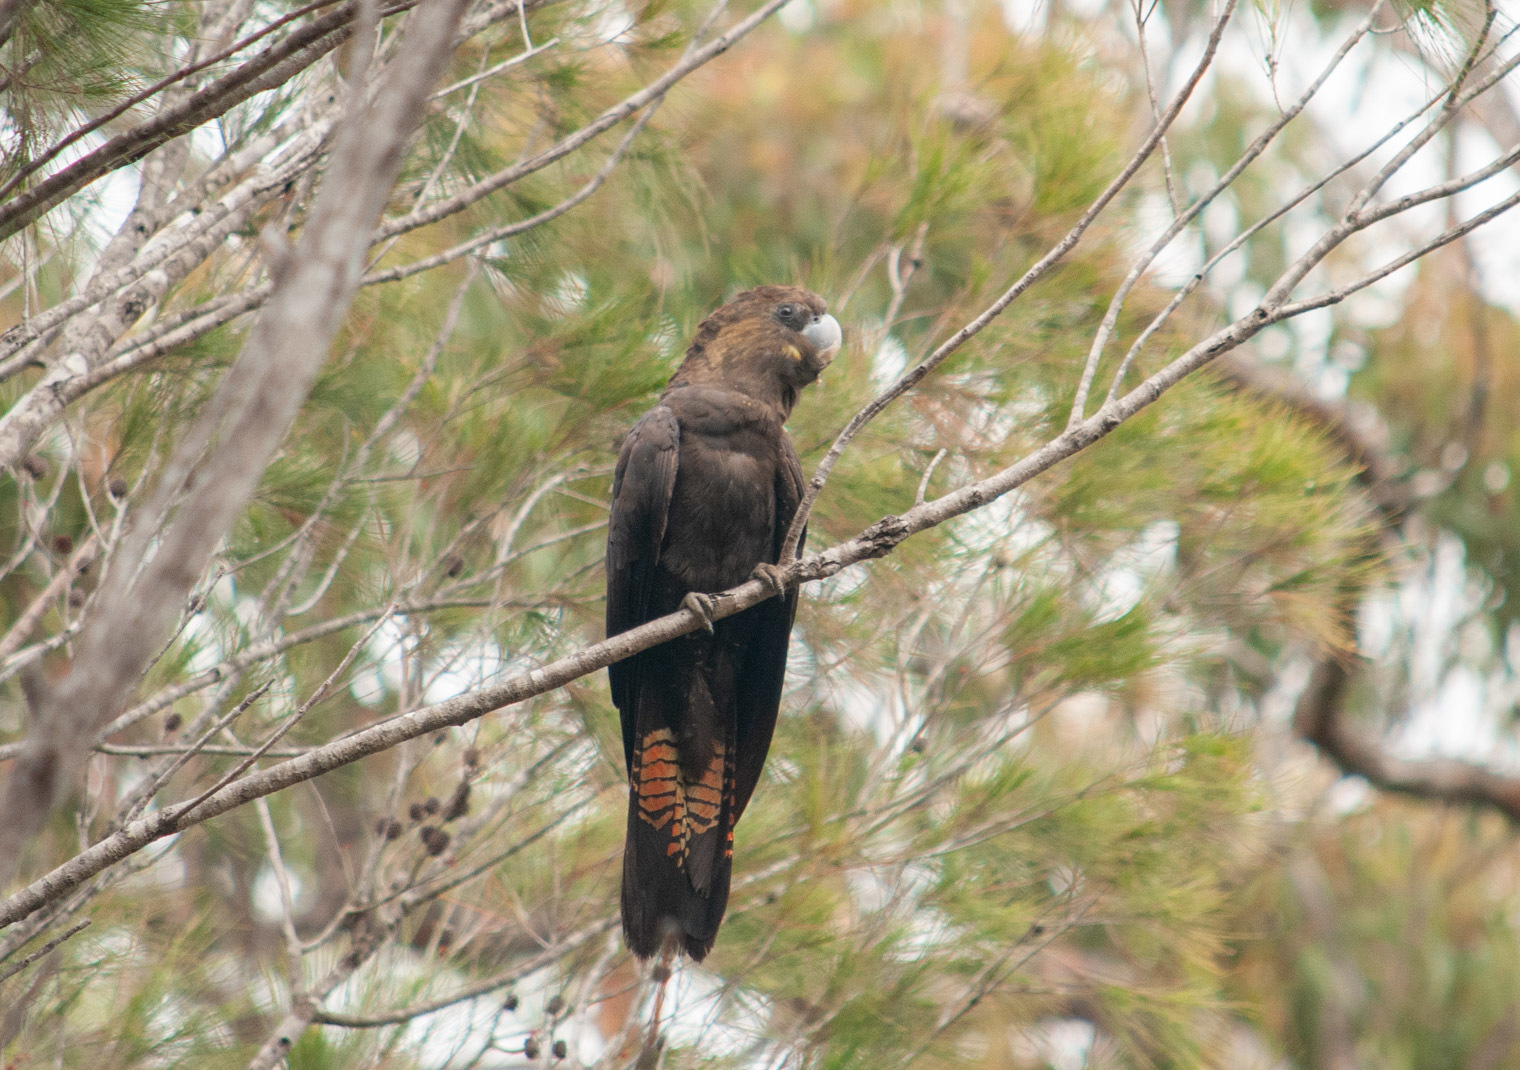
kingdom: Animalia
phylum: Chordata
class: Aves
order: Psittaciformes
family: Psittacidae
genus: Calyptorhynchus
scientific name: Calyptorhynchus lathami
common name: Glossy black cockatoo
